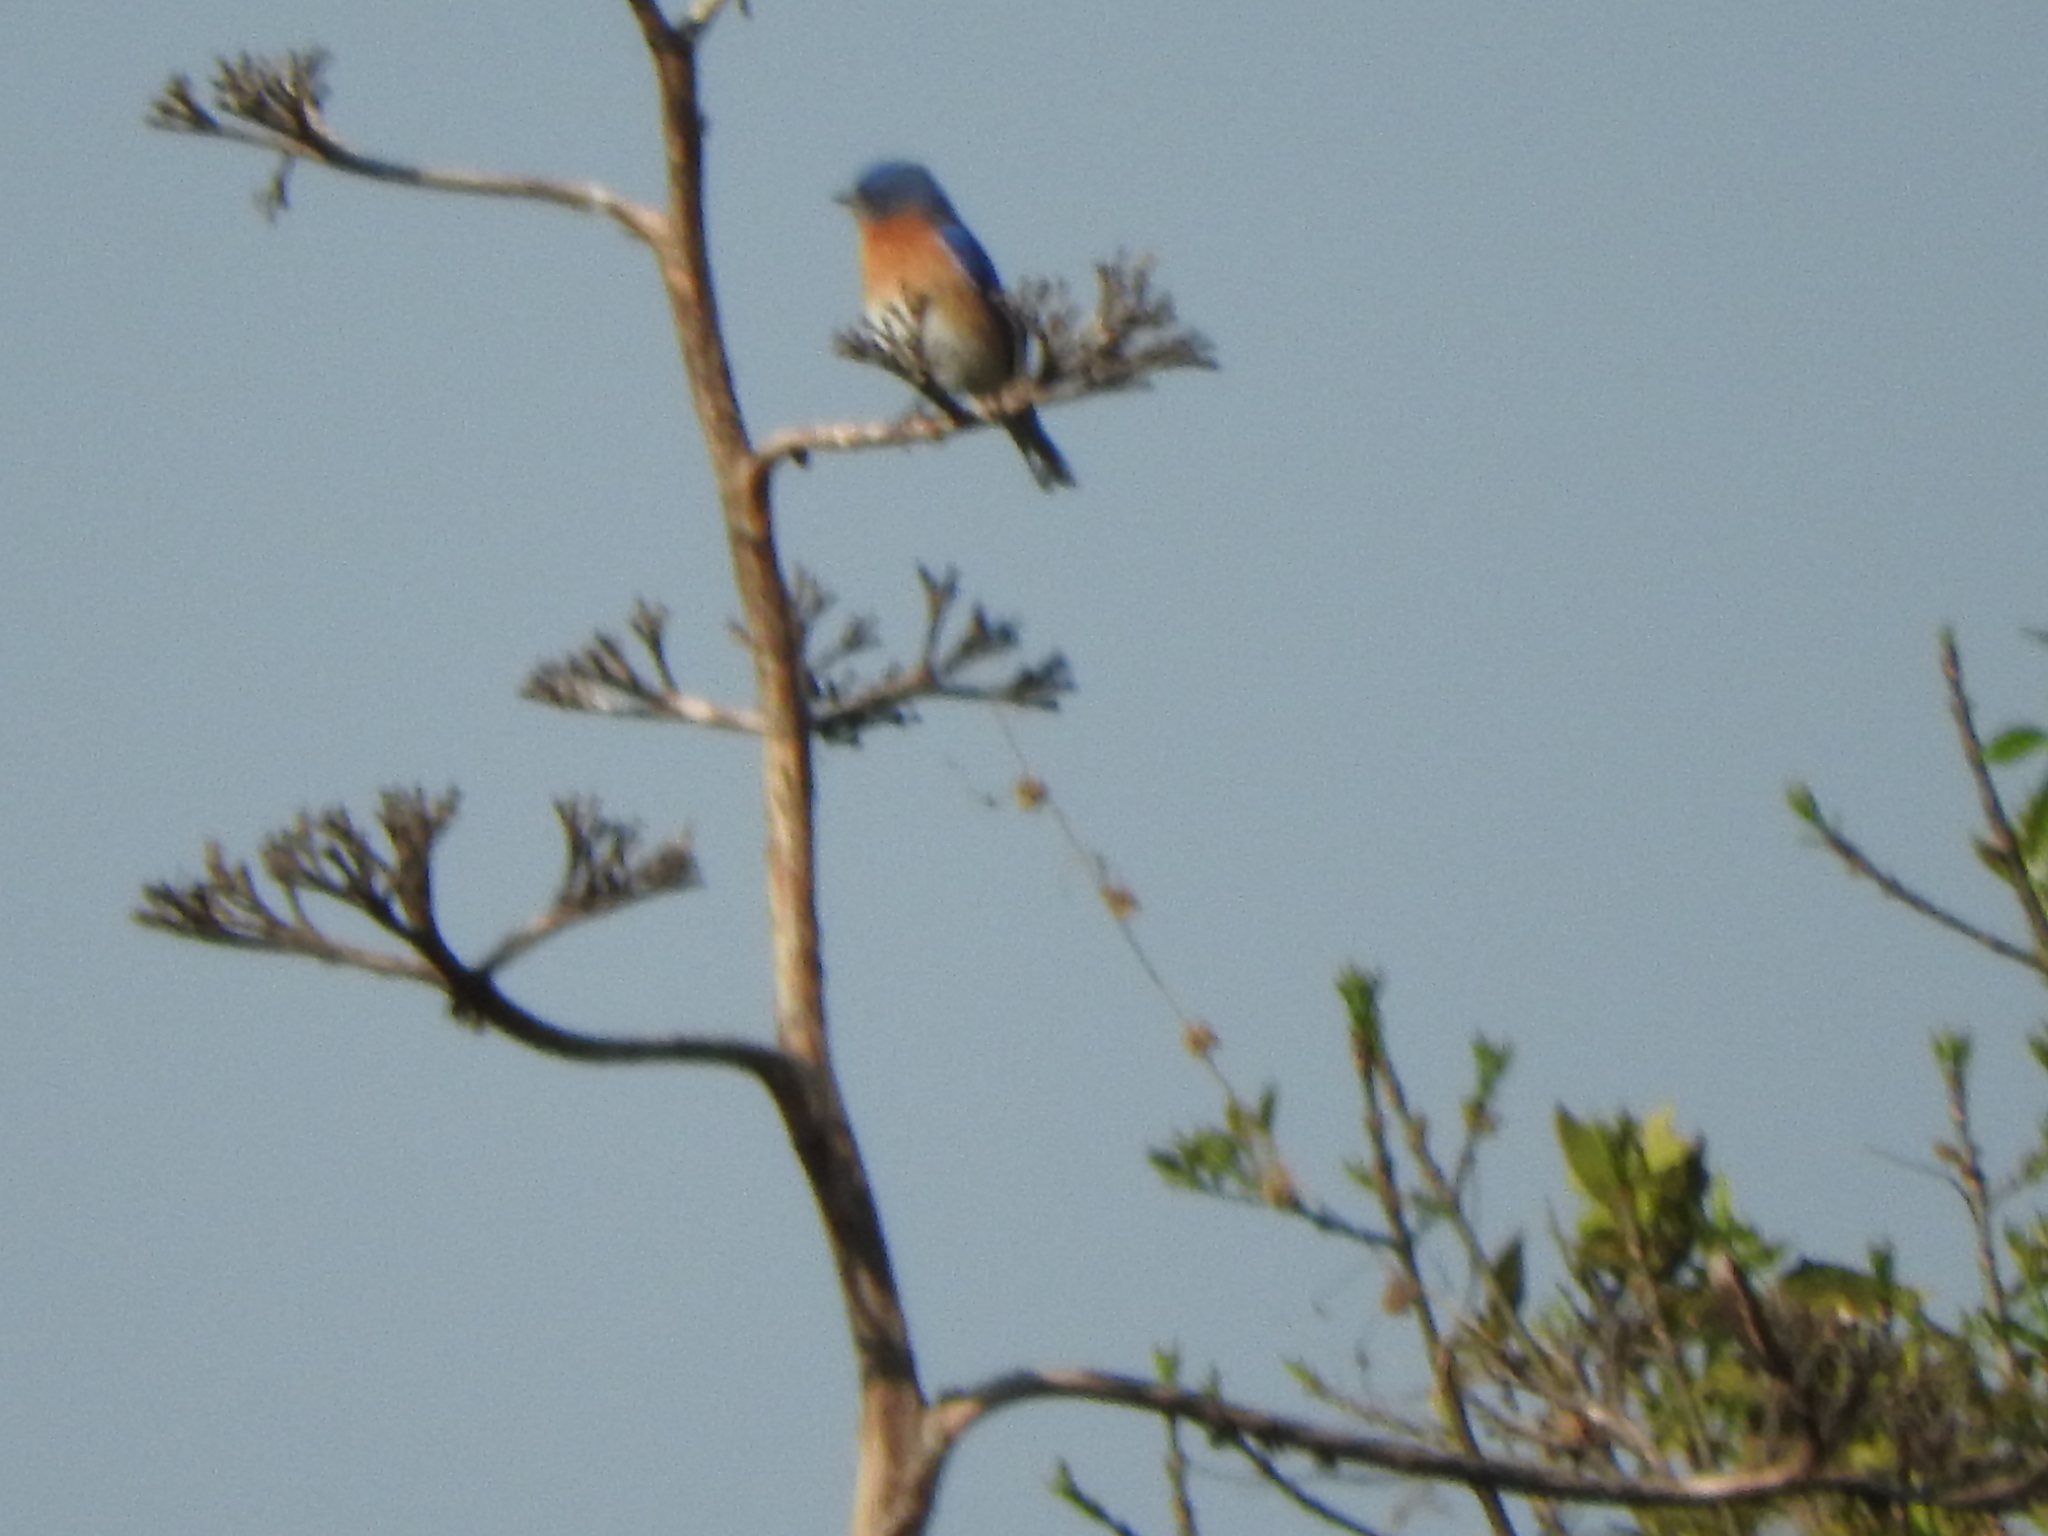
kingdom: Animalia
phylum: Chordata
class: Aves
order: Passeriformes
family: Turdidae
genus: Sialia
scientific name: Sialia sialis
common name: Eastern bluebird
